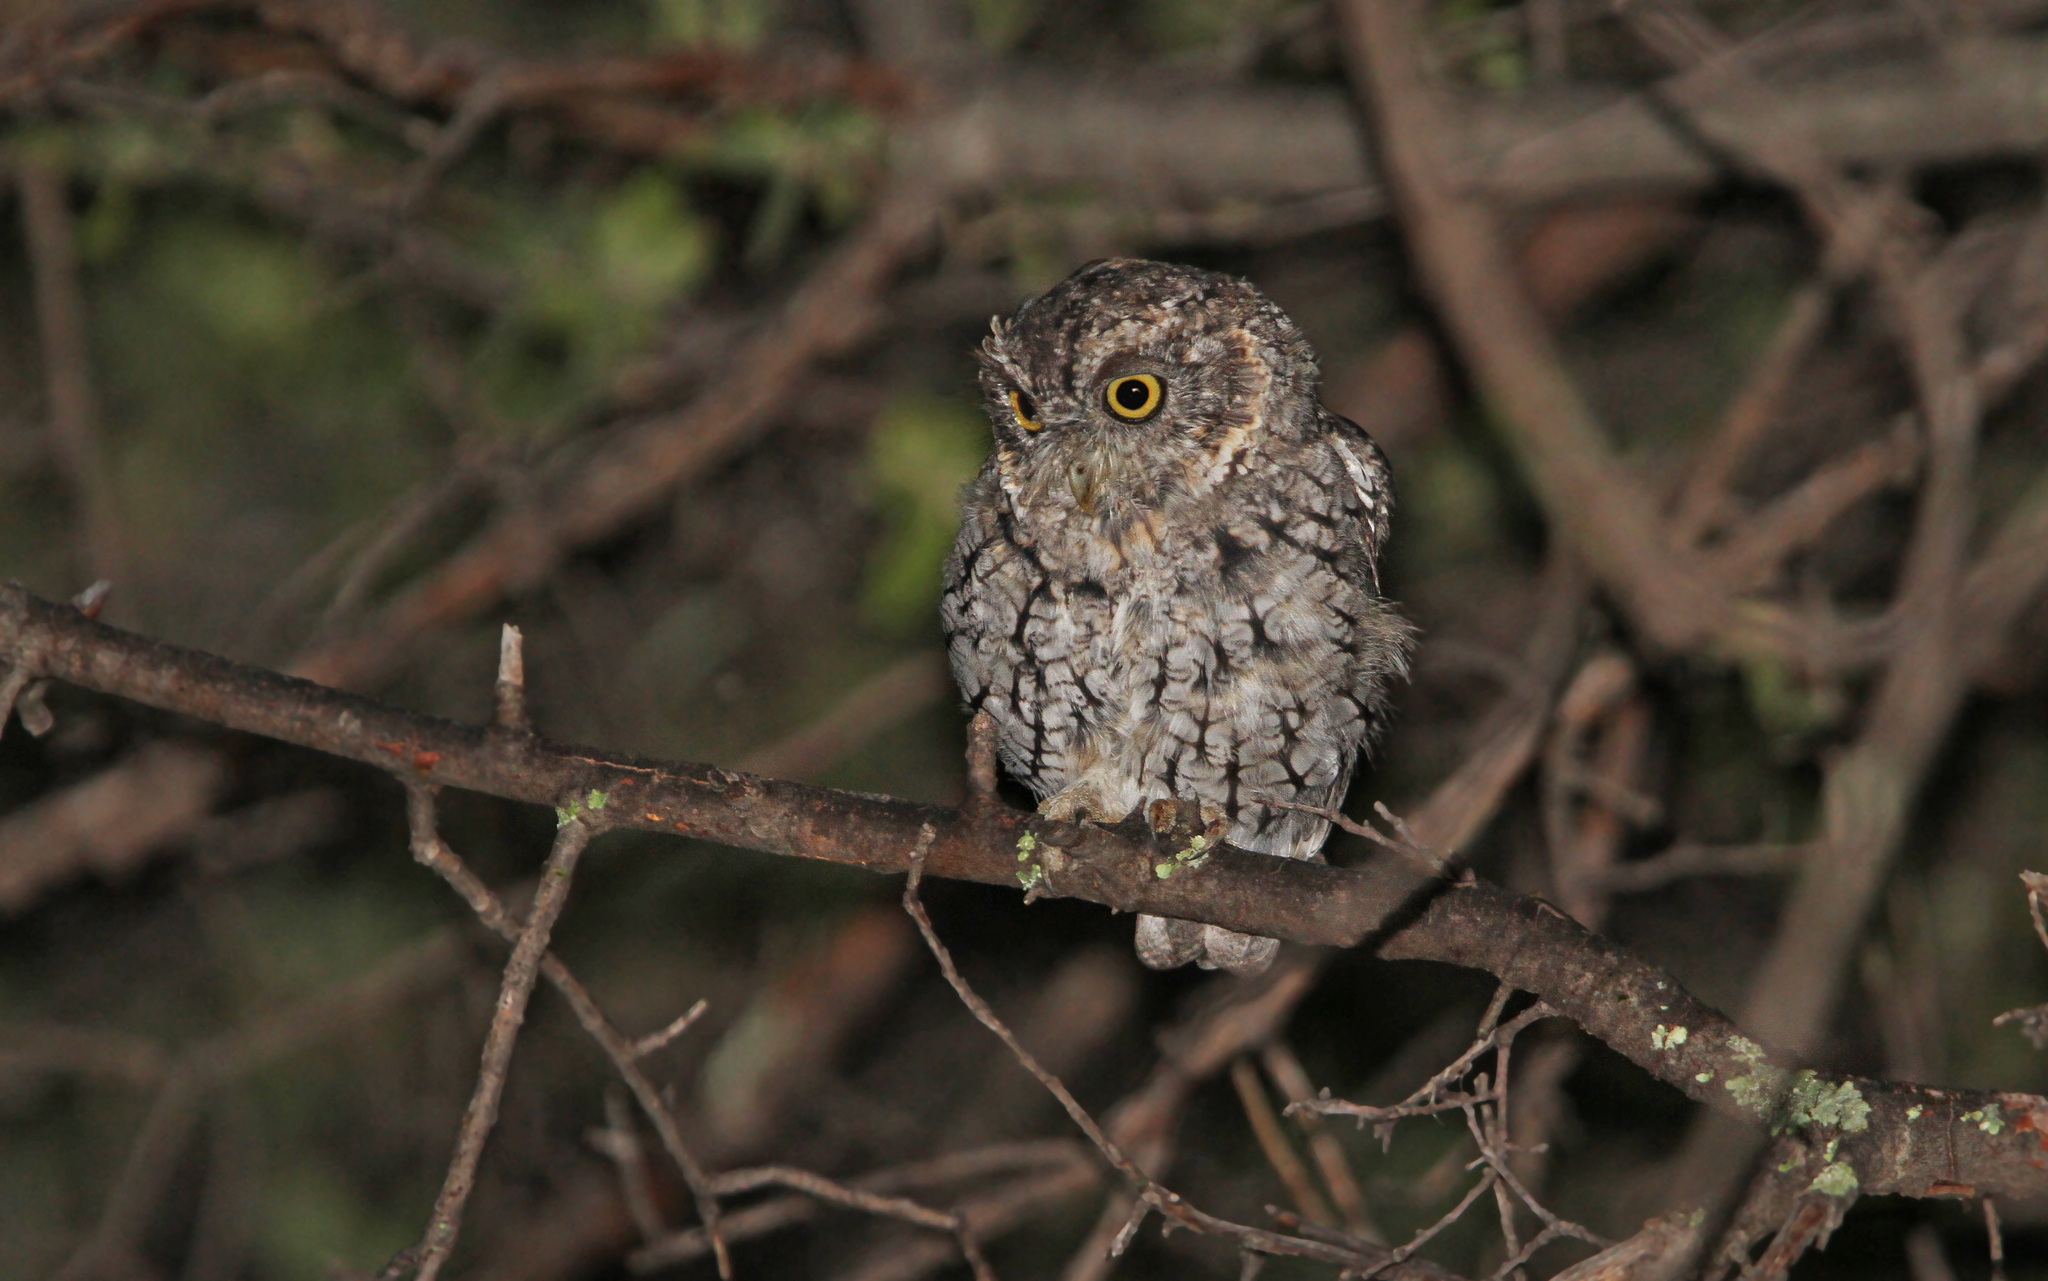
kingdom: Animalia
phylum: Chordata
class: Aves
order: Strigiformes
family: Strigidae
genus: Megascops
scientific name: Megascops trichopsis
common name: Whiskered screech-owl
